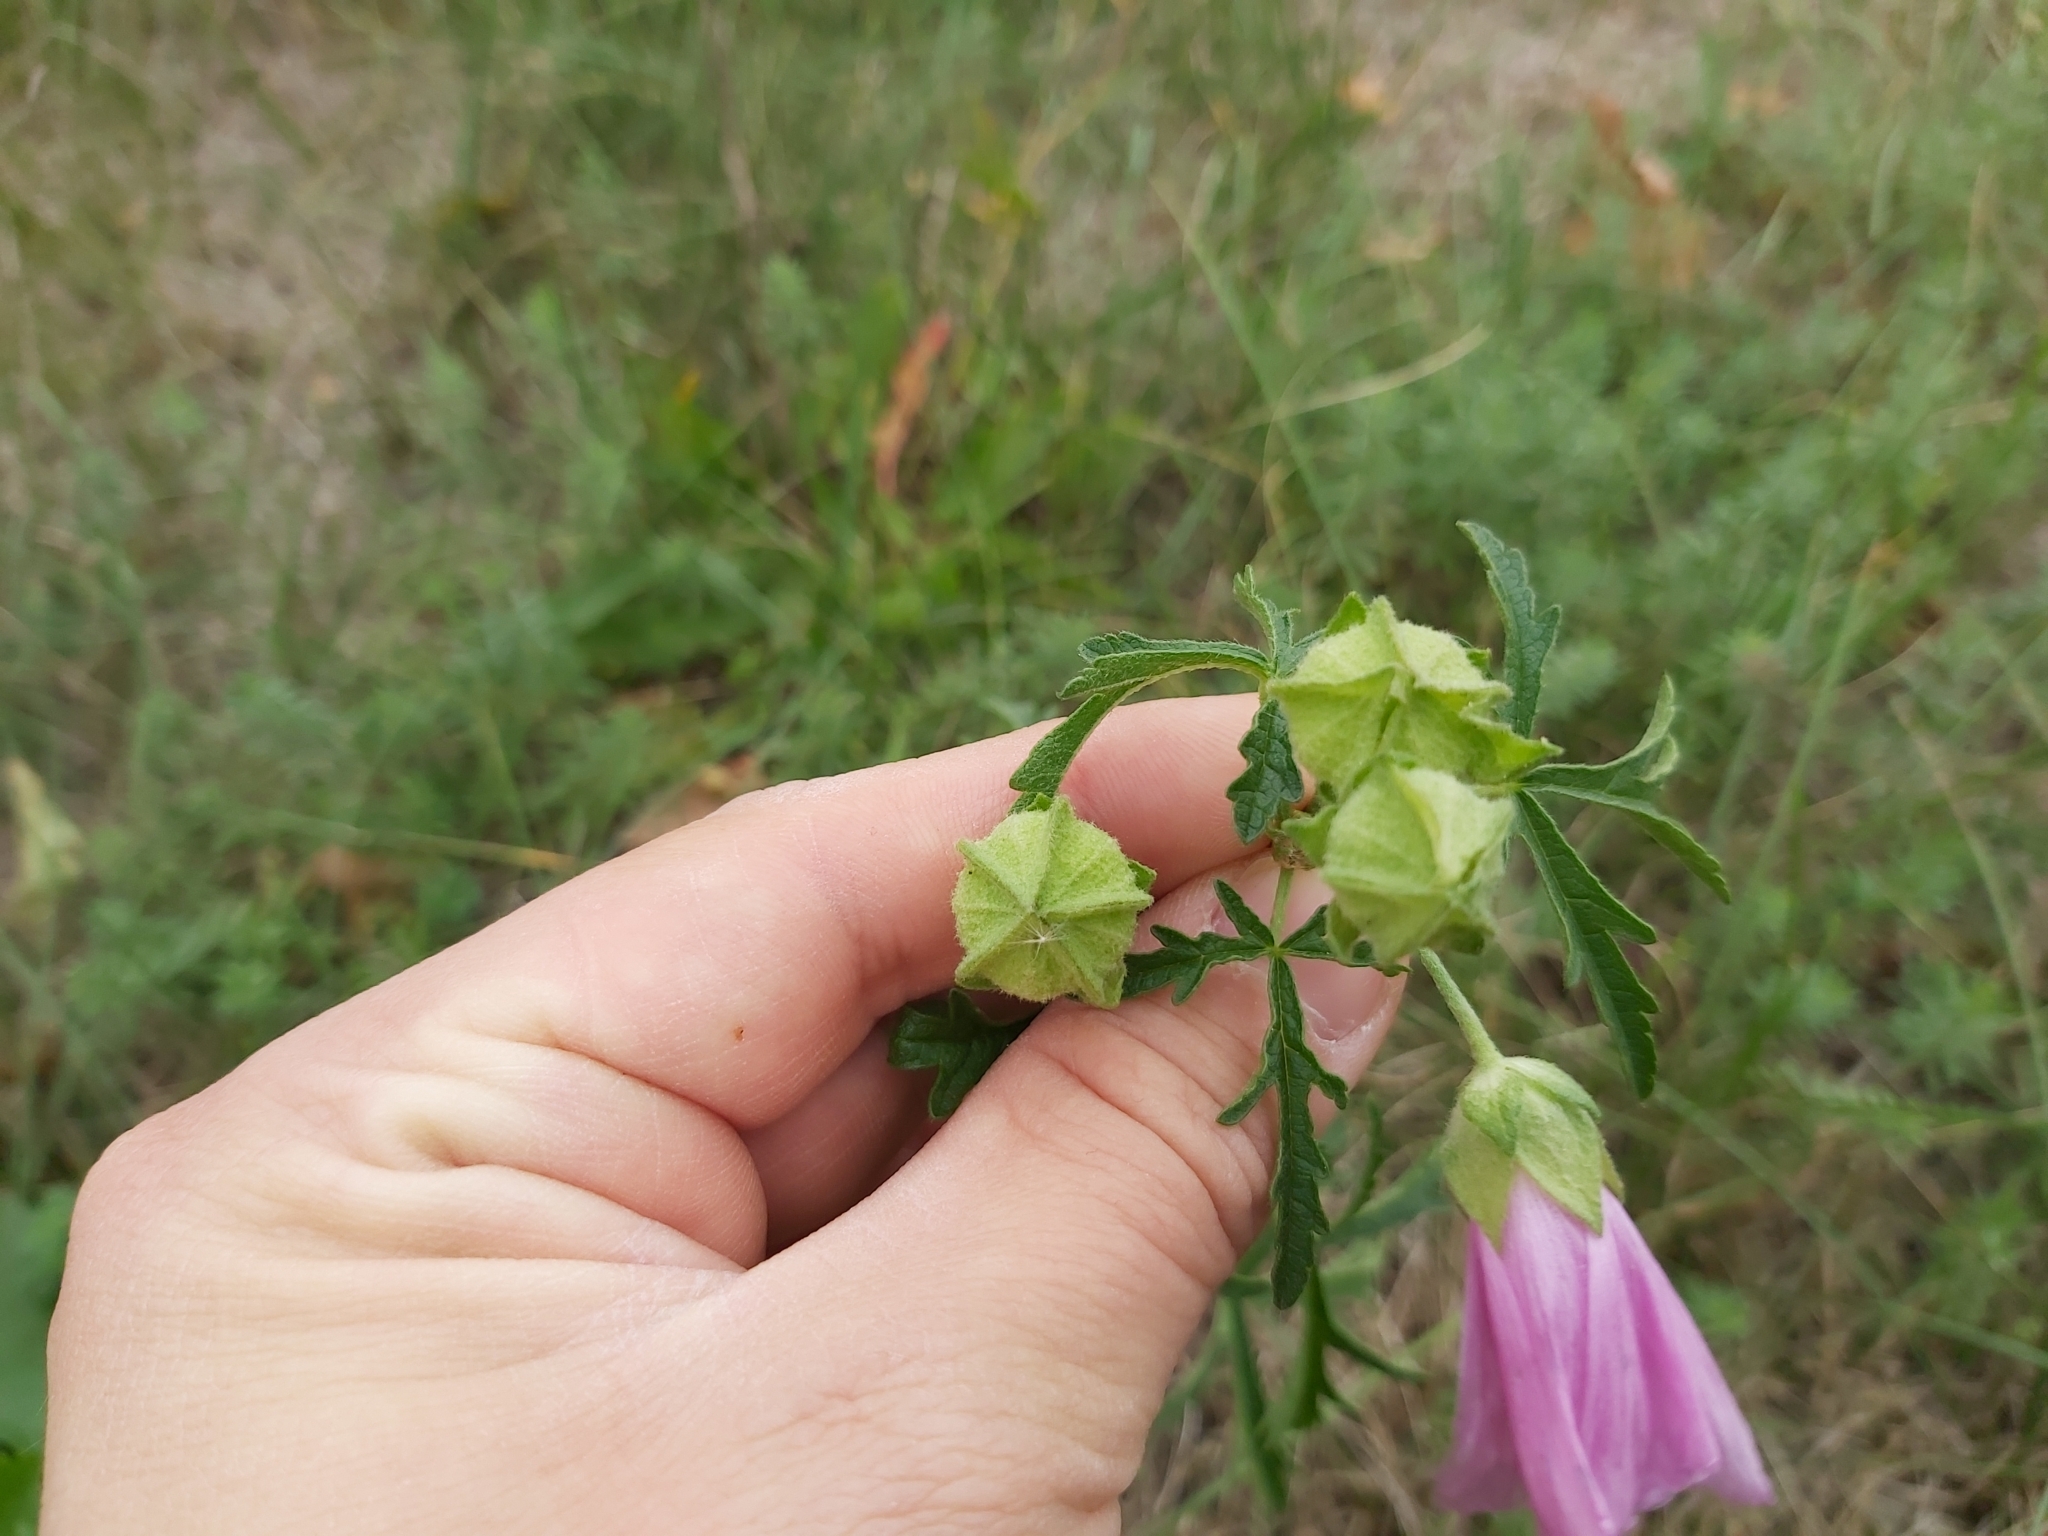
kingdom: Plantae
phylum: Tracheophyta
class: Magnoliopsida
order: Malvales
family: Malvaceae
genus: Malva
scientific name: Malva alcea
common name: Greater musk-mallow
